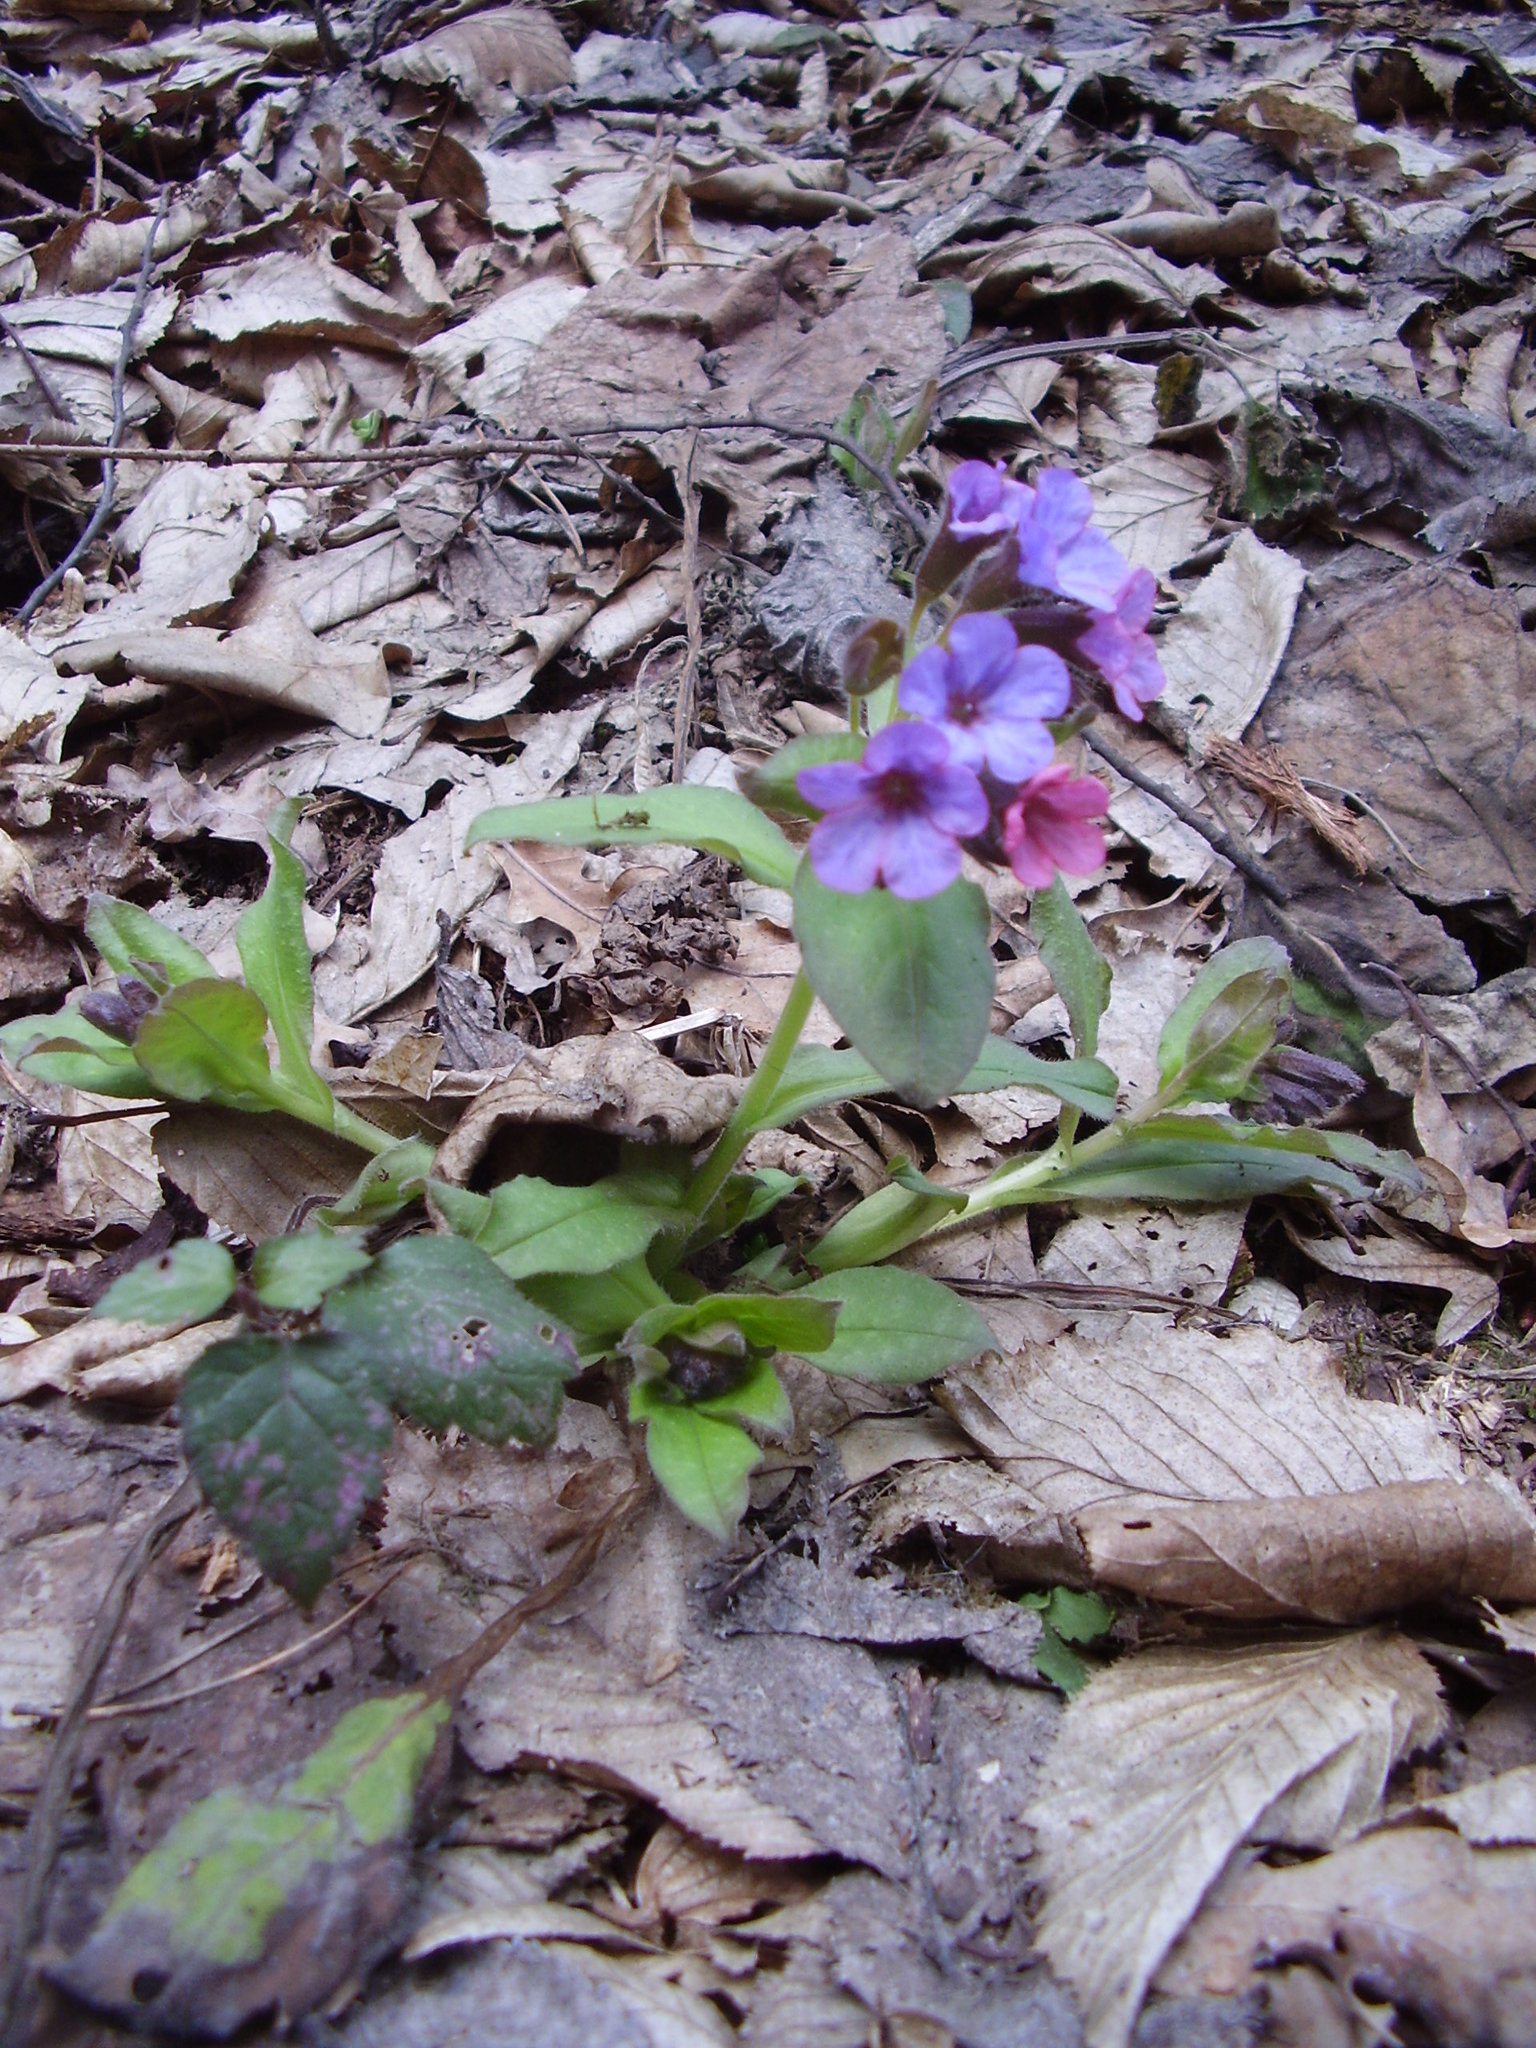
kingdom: Plantae
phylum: Tracheophyta
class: Magnoliopsida
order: Boraginales
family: Boraginaceae
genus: Pulmonaria
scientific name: Pulmonaria obscura
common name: Suffolk lungwort
